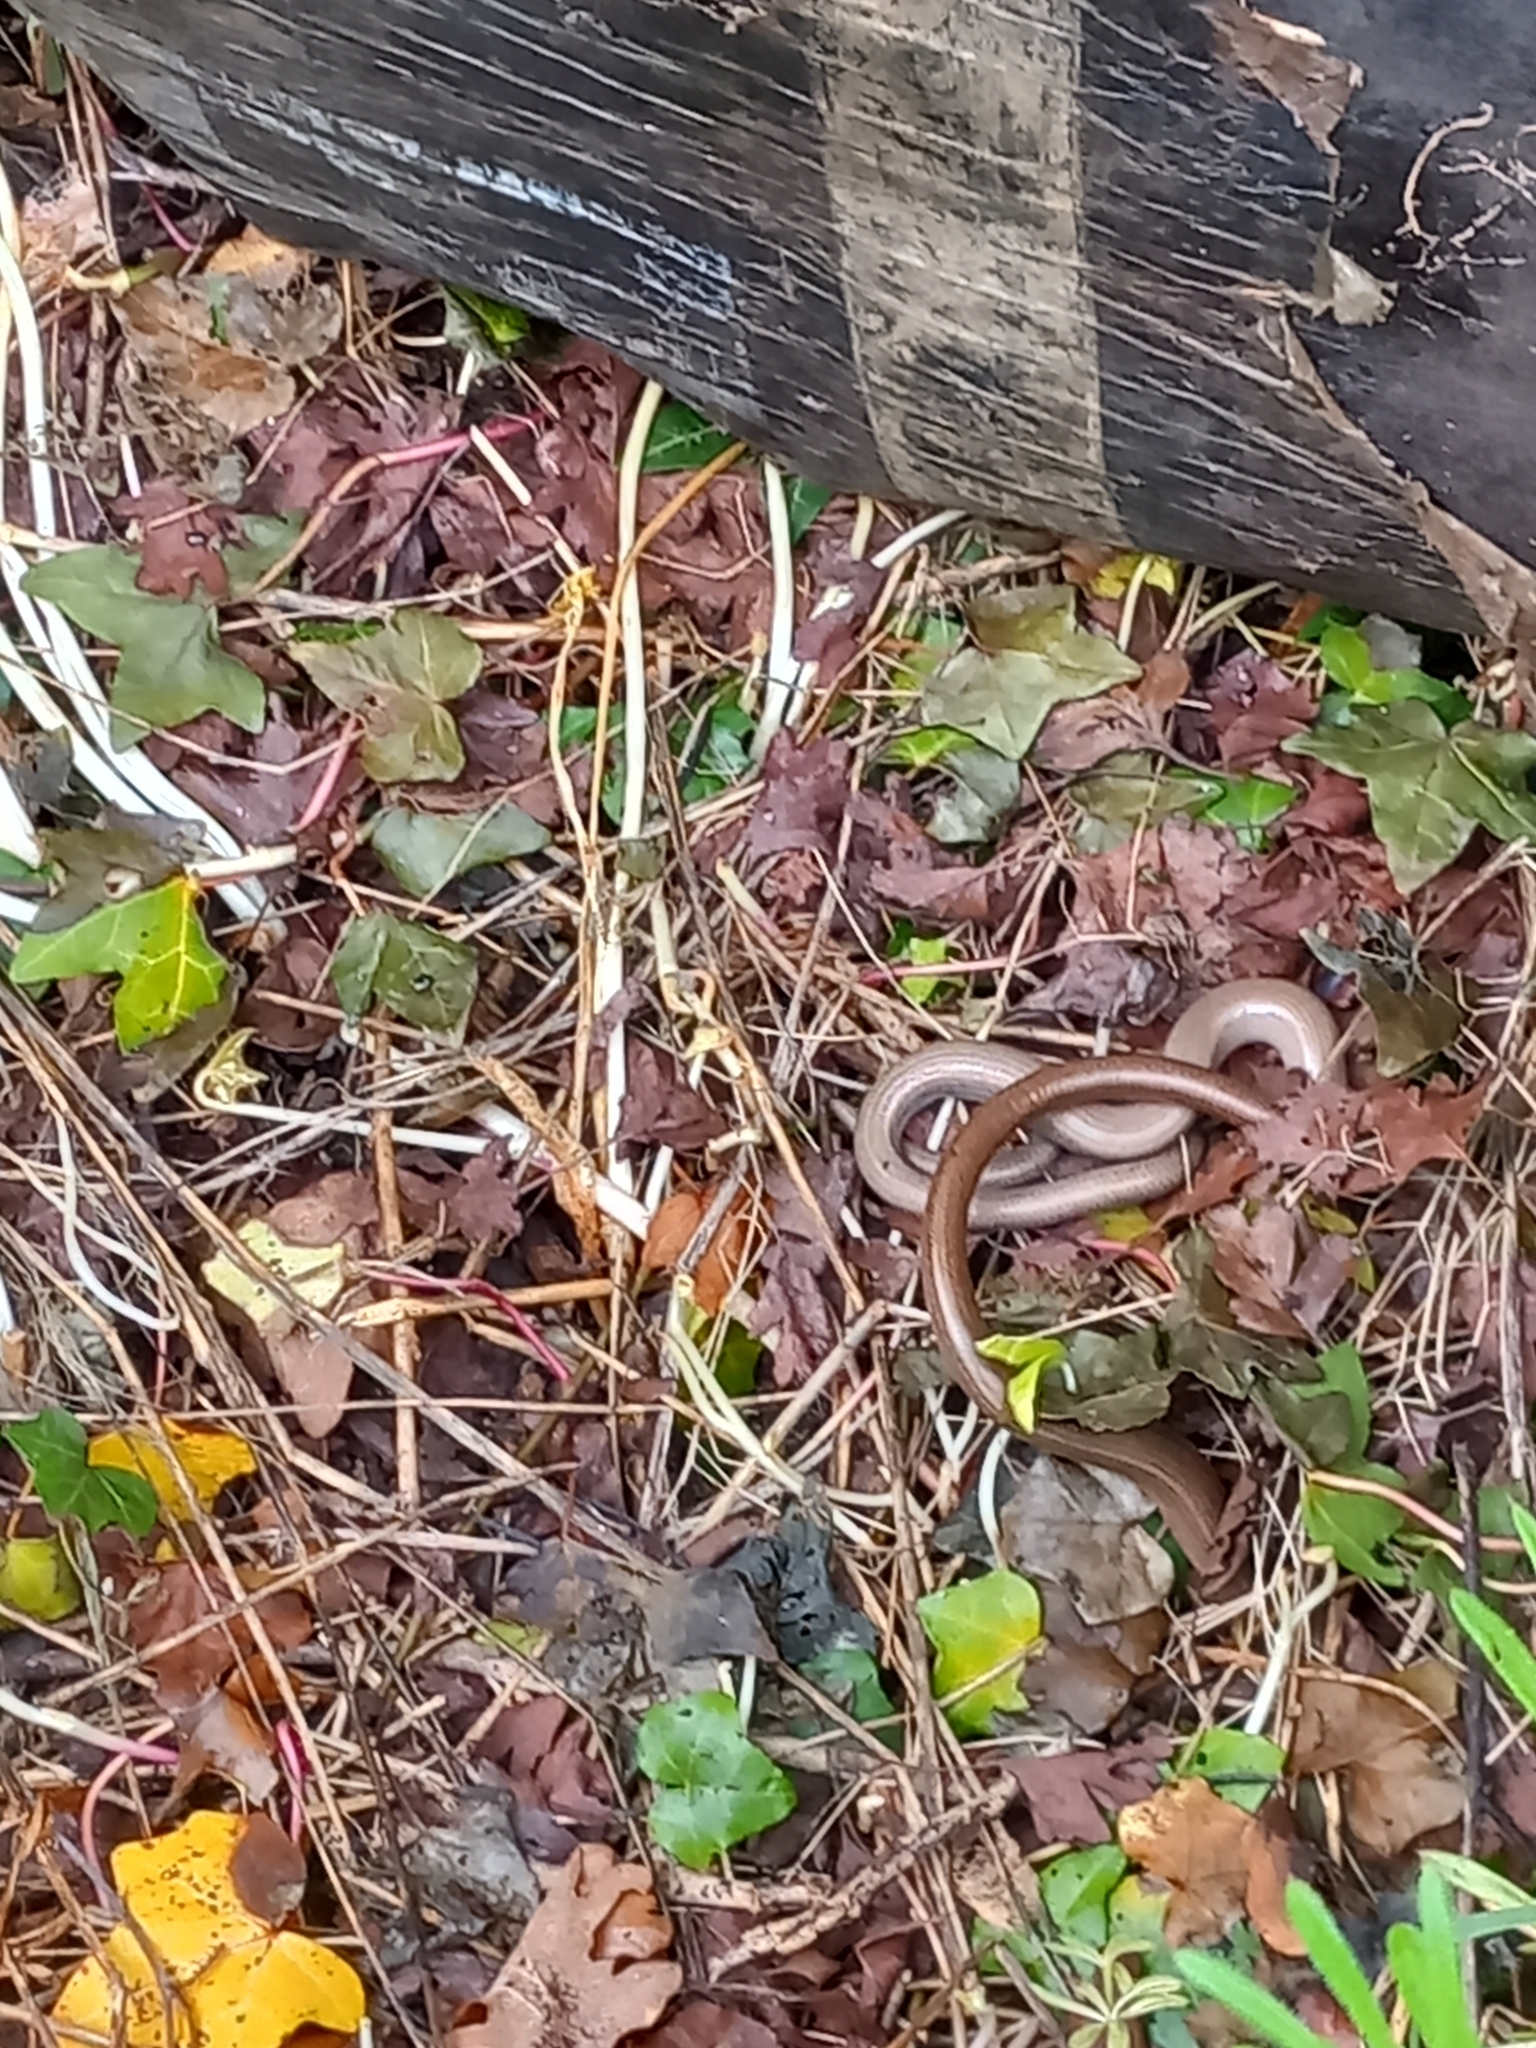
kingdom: Animalia
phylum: Chordata
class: Squamata
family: Anguidae
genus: Anguis
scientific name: Anguis fragilis
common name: Slow worm
